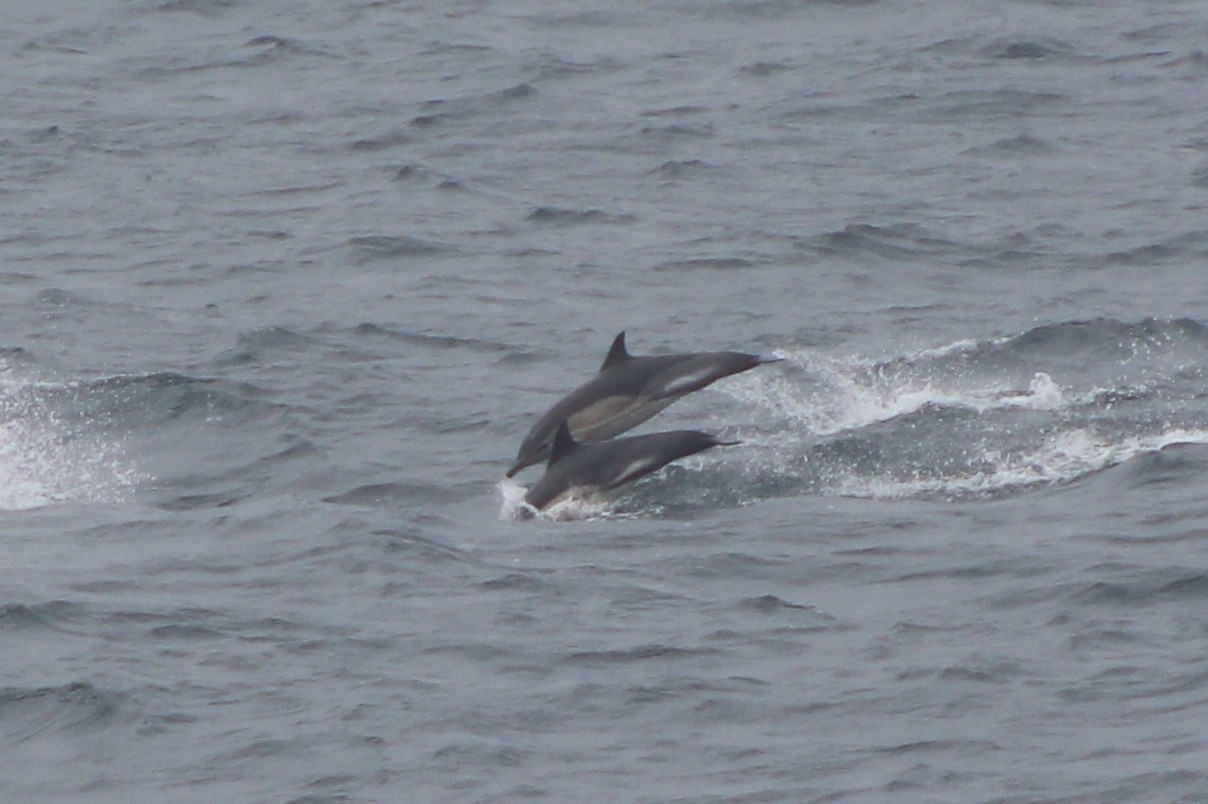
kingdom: Animalia
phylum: Chordata
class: Mammalia
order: Cetacea
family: Delphinidae
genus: Delphinus
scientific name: Delphinus delphis
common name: Common dolphin
